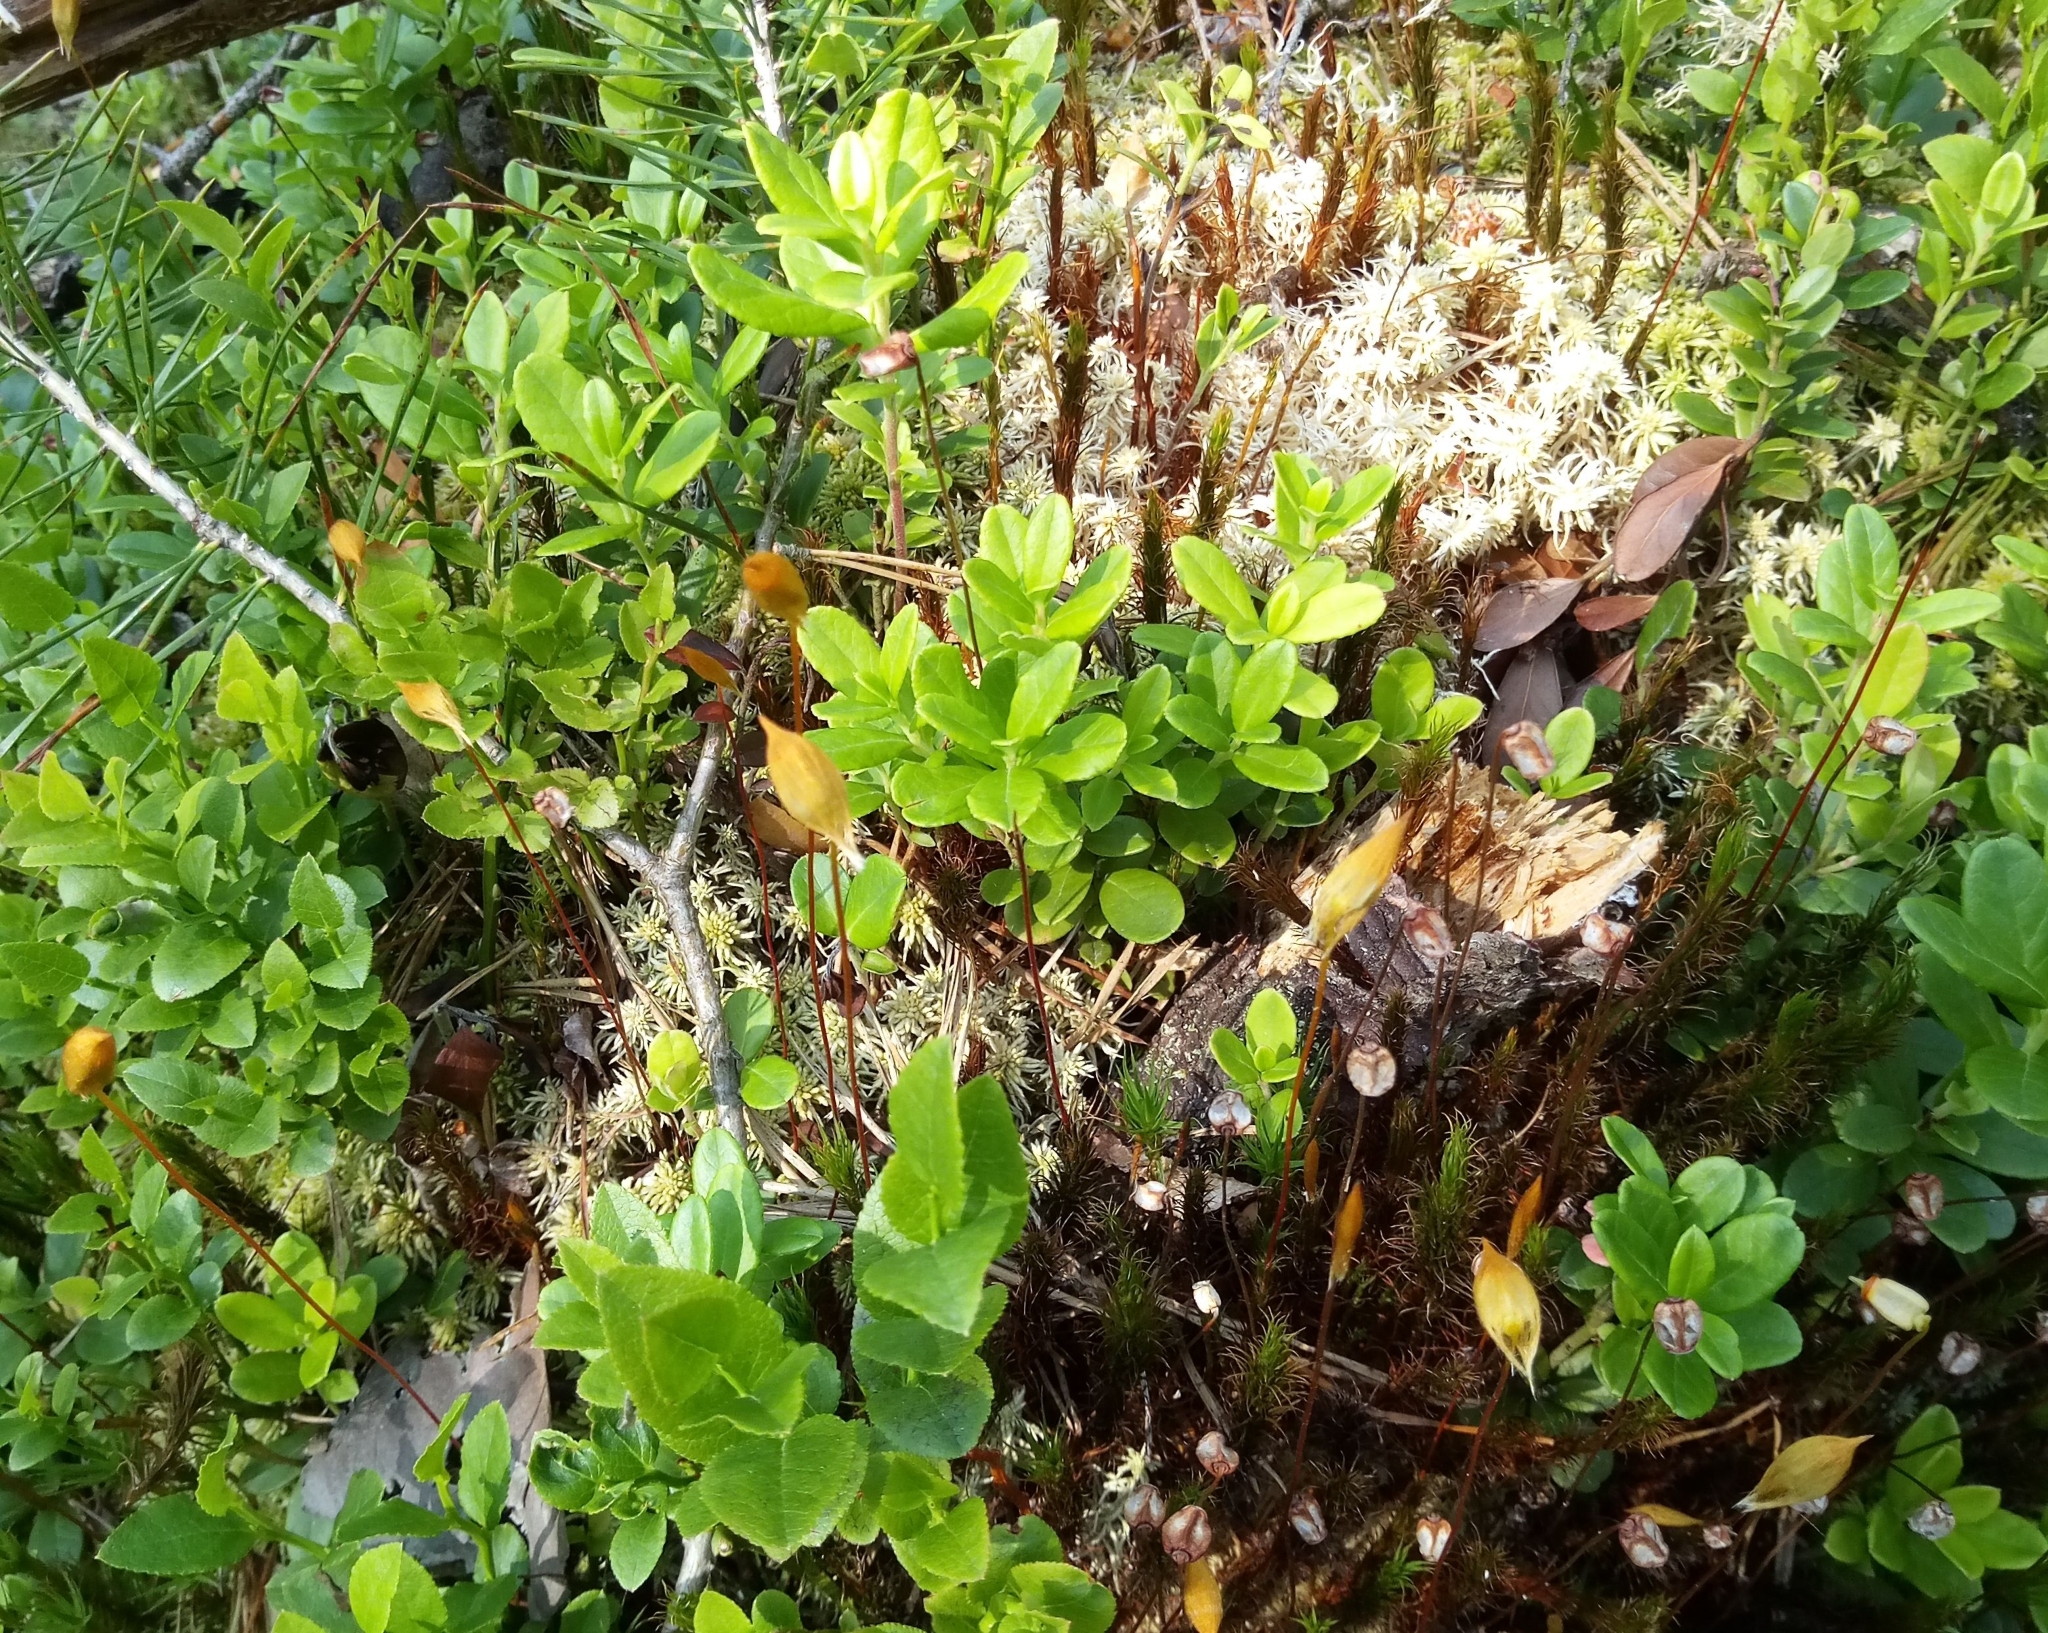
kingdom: Plantae
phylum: Tracheophyta
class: Magnoliopsida
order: Ericales
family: Ericaceae
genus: Vaccinium
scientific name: Vaccinium vitis-idaea
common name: Cowberry
